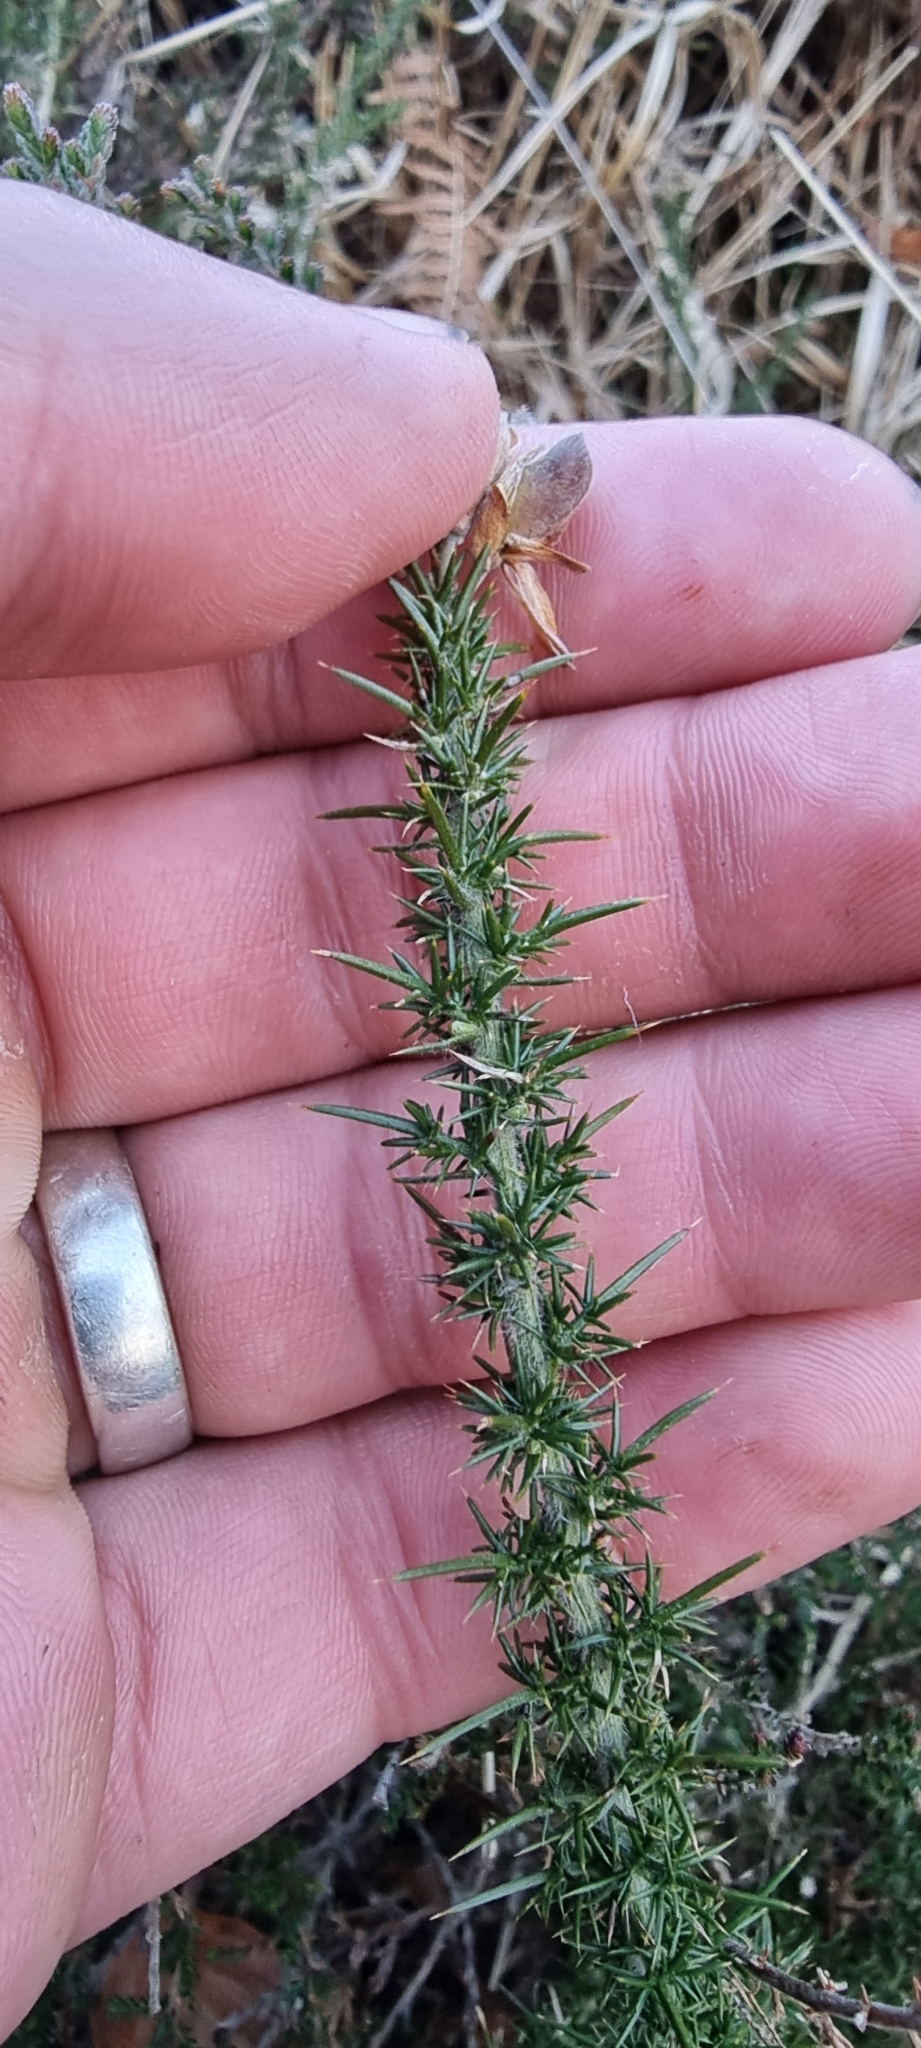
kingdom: Plantae
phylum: Tracheophyta
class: Magnoliopsida
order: Fabales
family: Fabaceae
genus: Ulex
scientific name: Ulex minor
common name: Dwarf gorse
